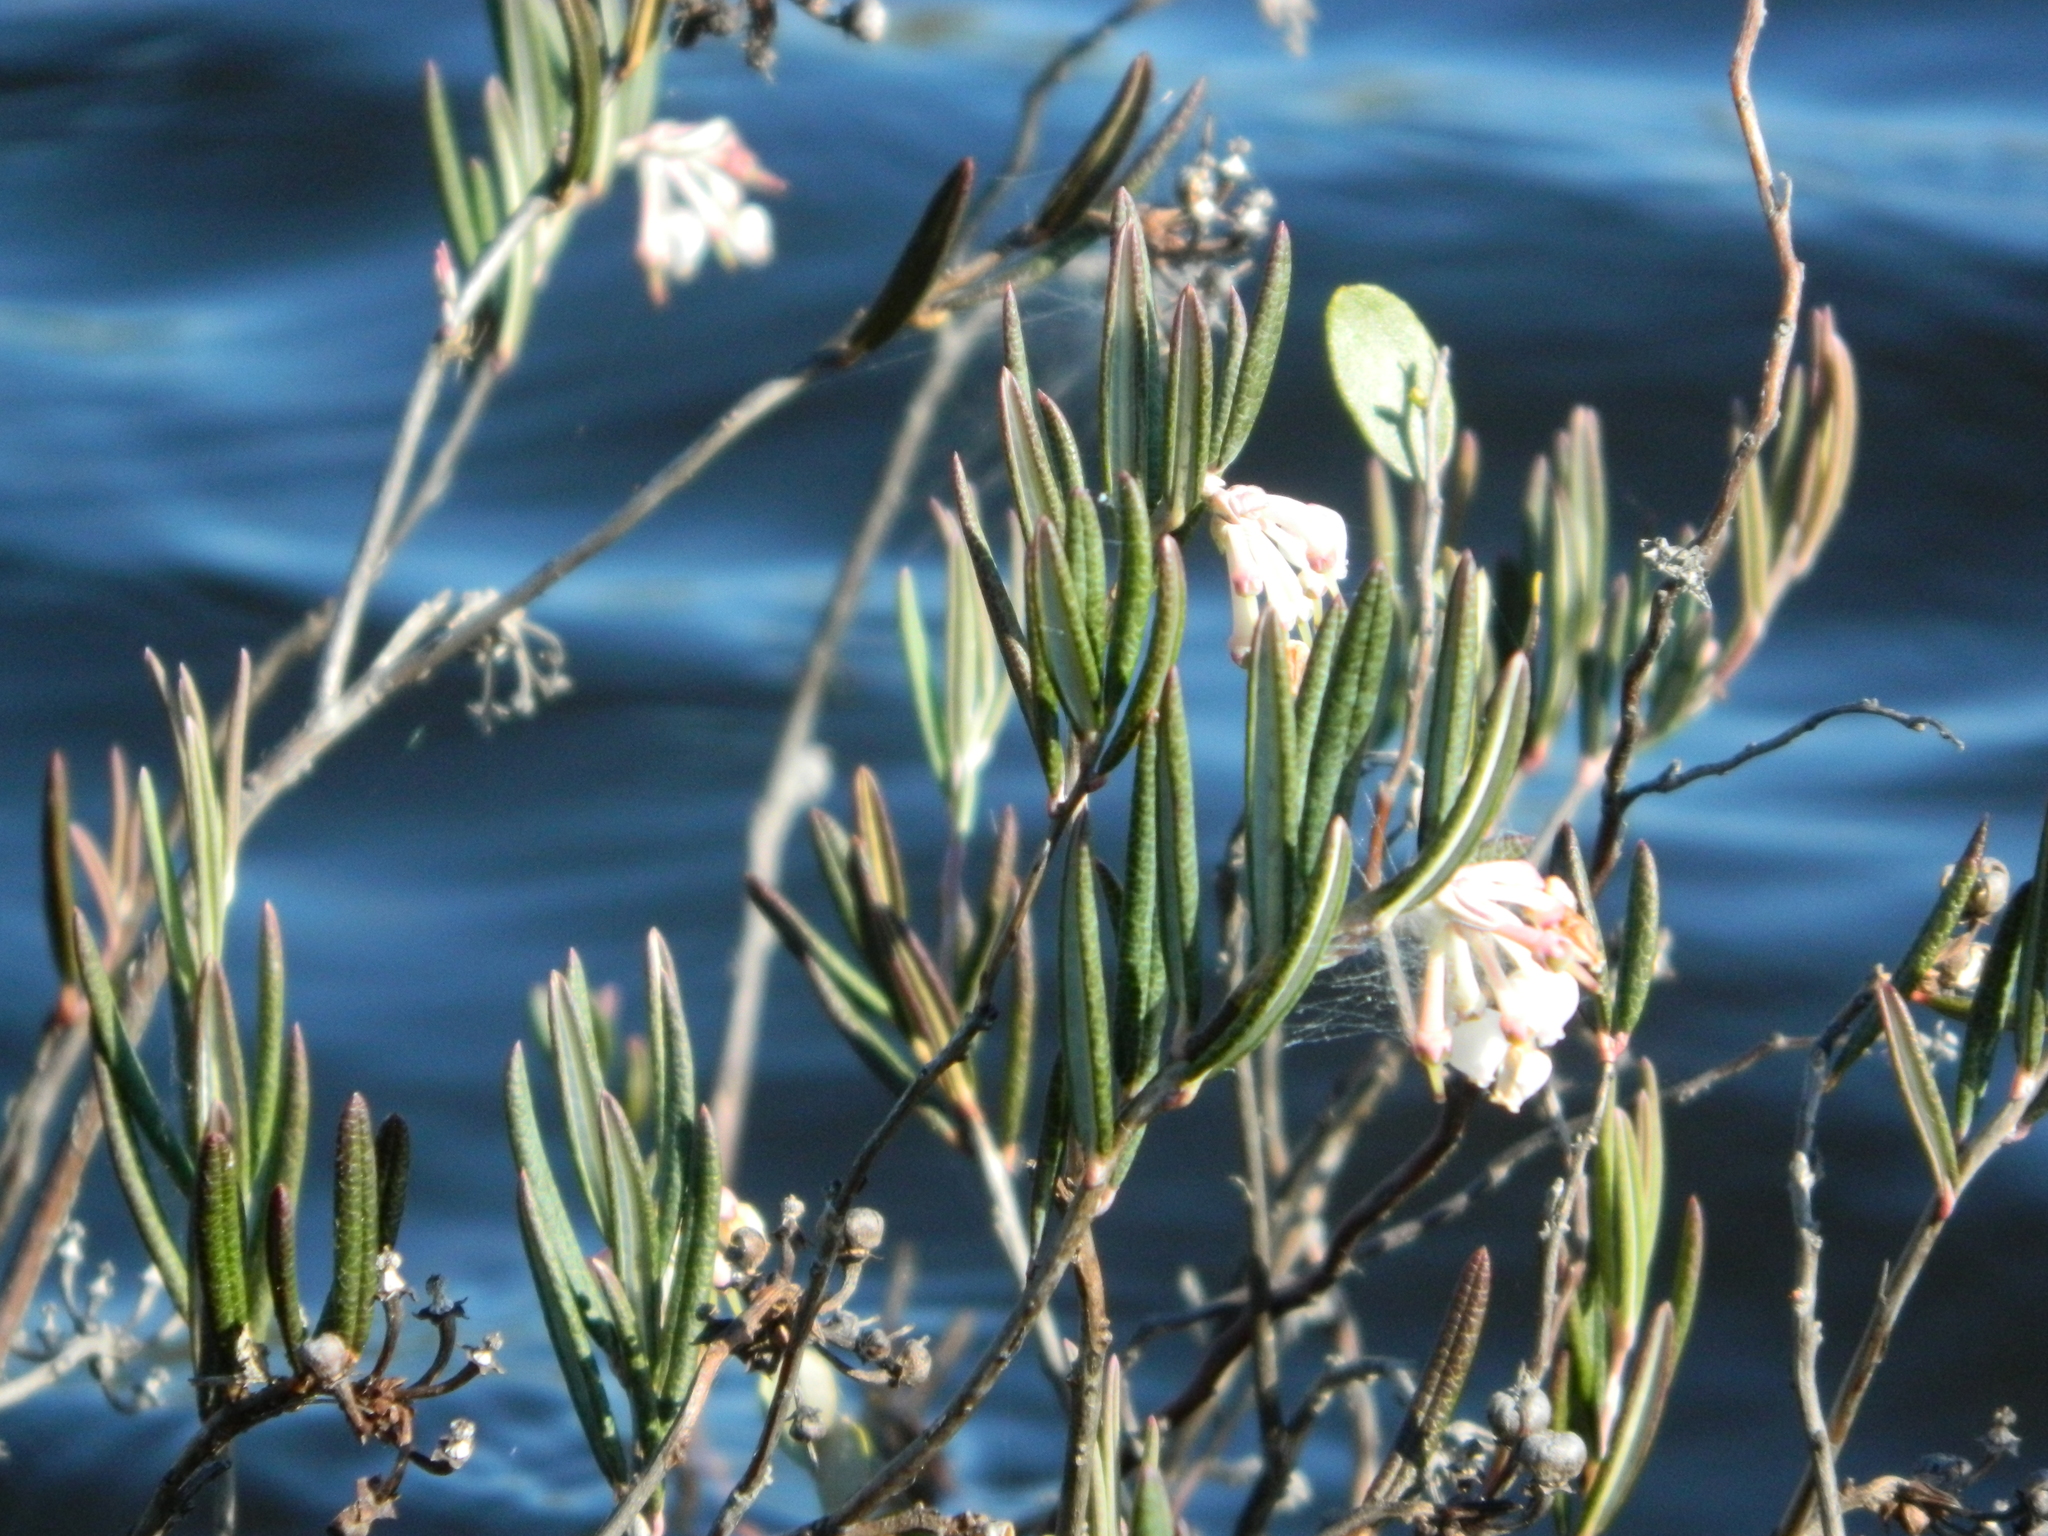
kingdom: Plantae
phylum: Tracheophyta
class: Magnoliopsida
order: Ericales
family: Ericaceae
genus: Andromeda
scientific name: Andromeda polifolia
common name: Bog-rosemary
